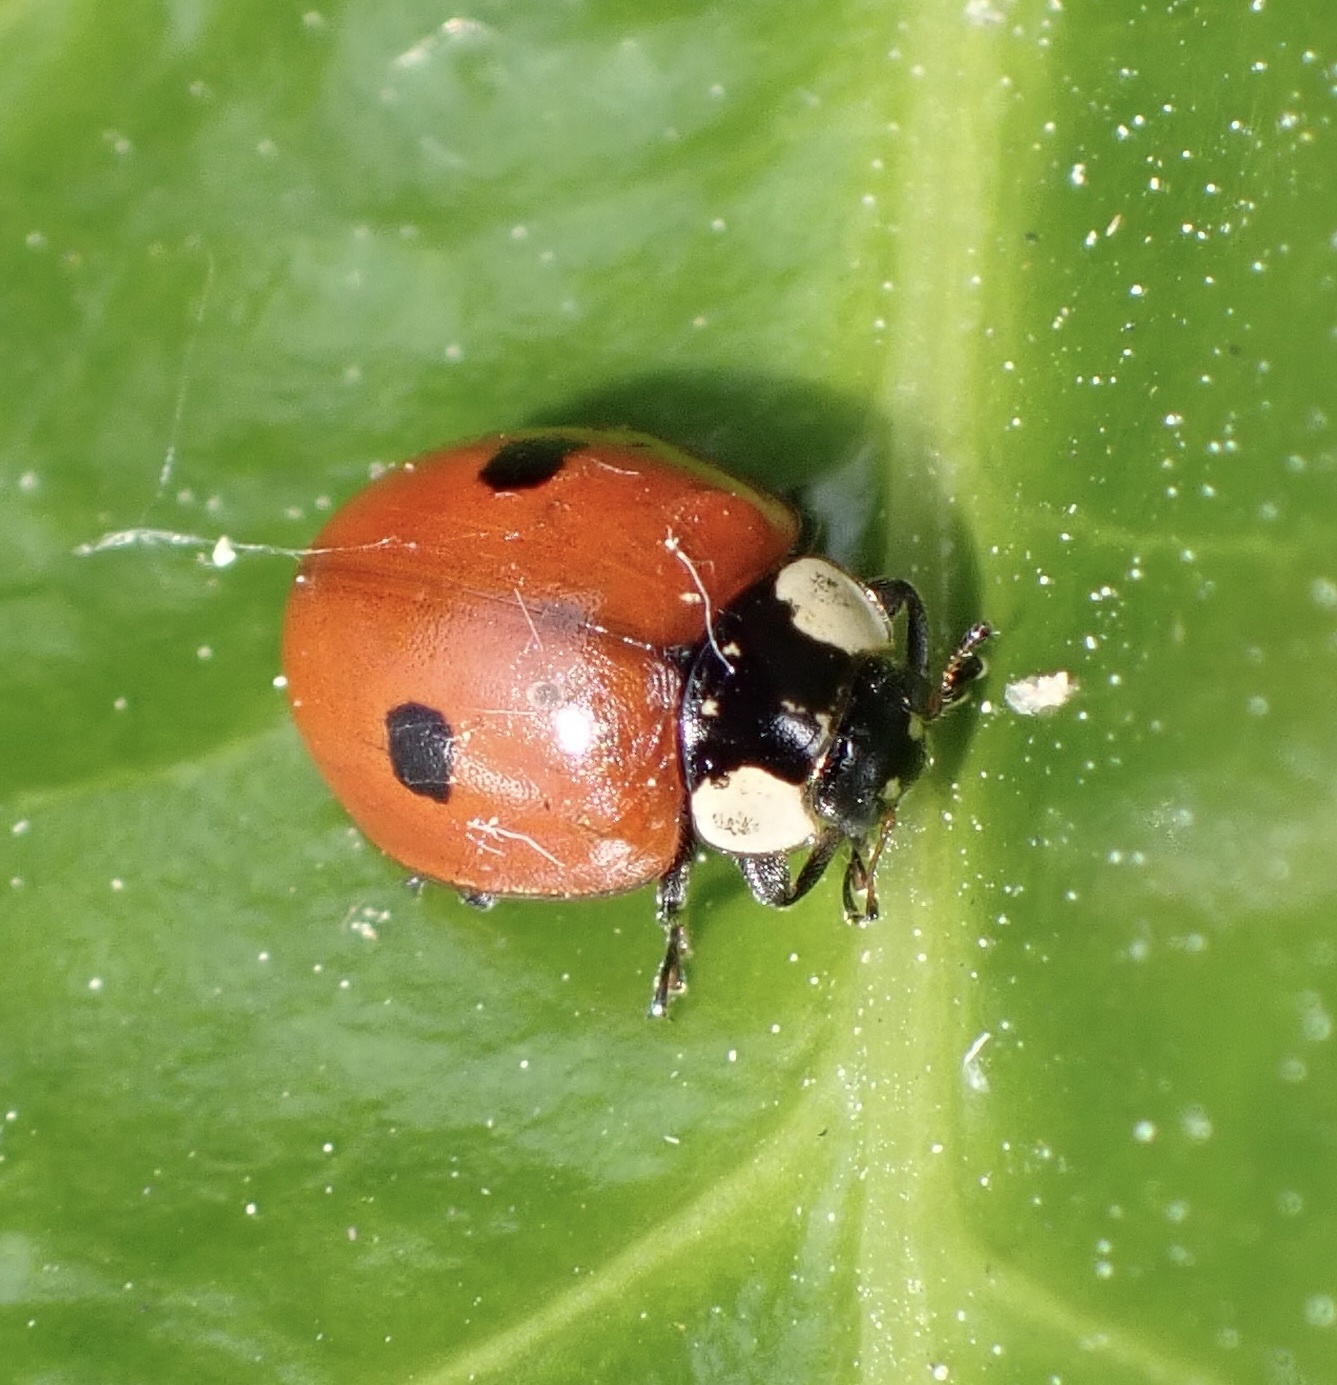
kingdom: Animalia
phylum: Arthropoda
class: Insecta
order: Coleoptera
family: Coccinellidae
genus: Adalia
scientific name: Adalia bipunctata
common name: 2-spot ladybird
